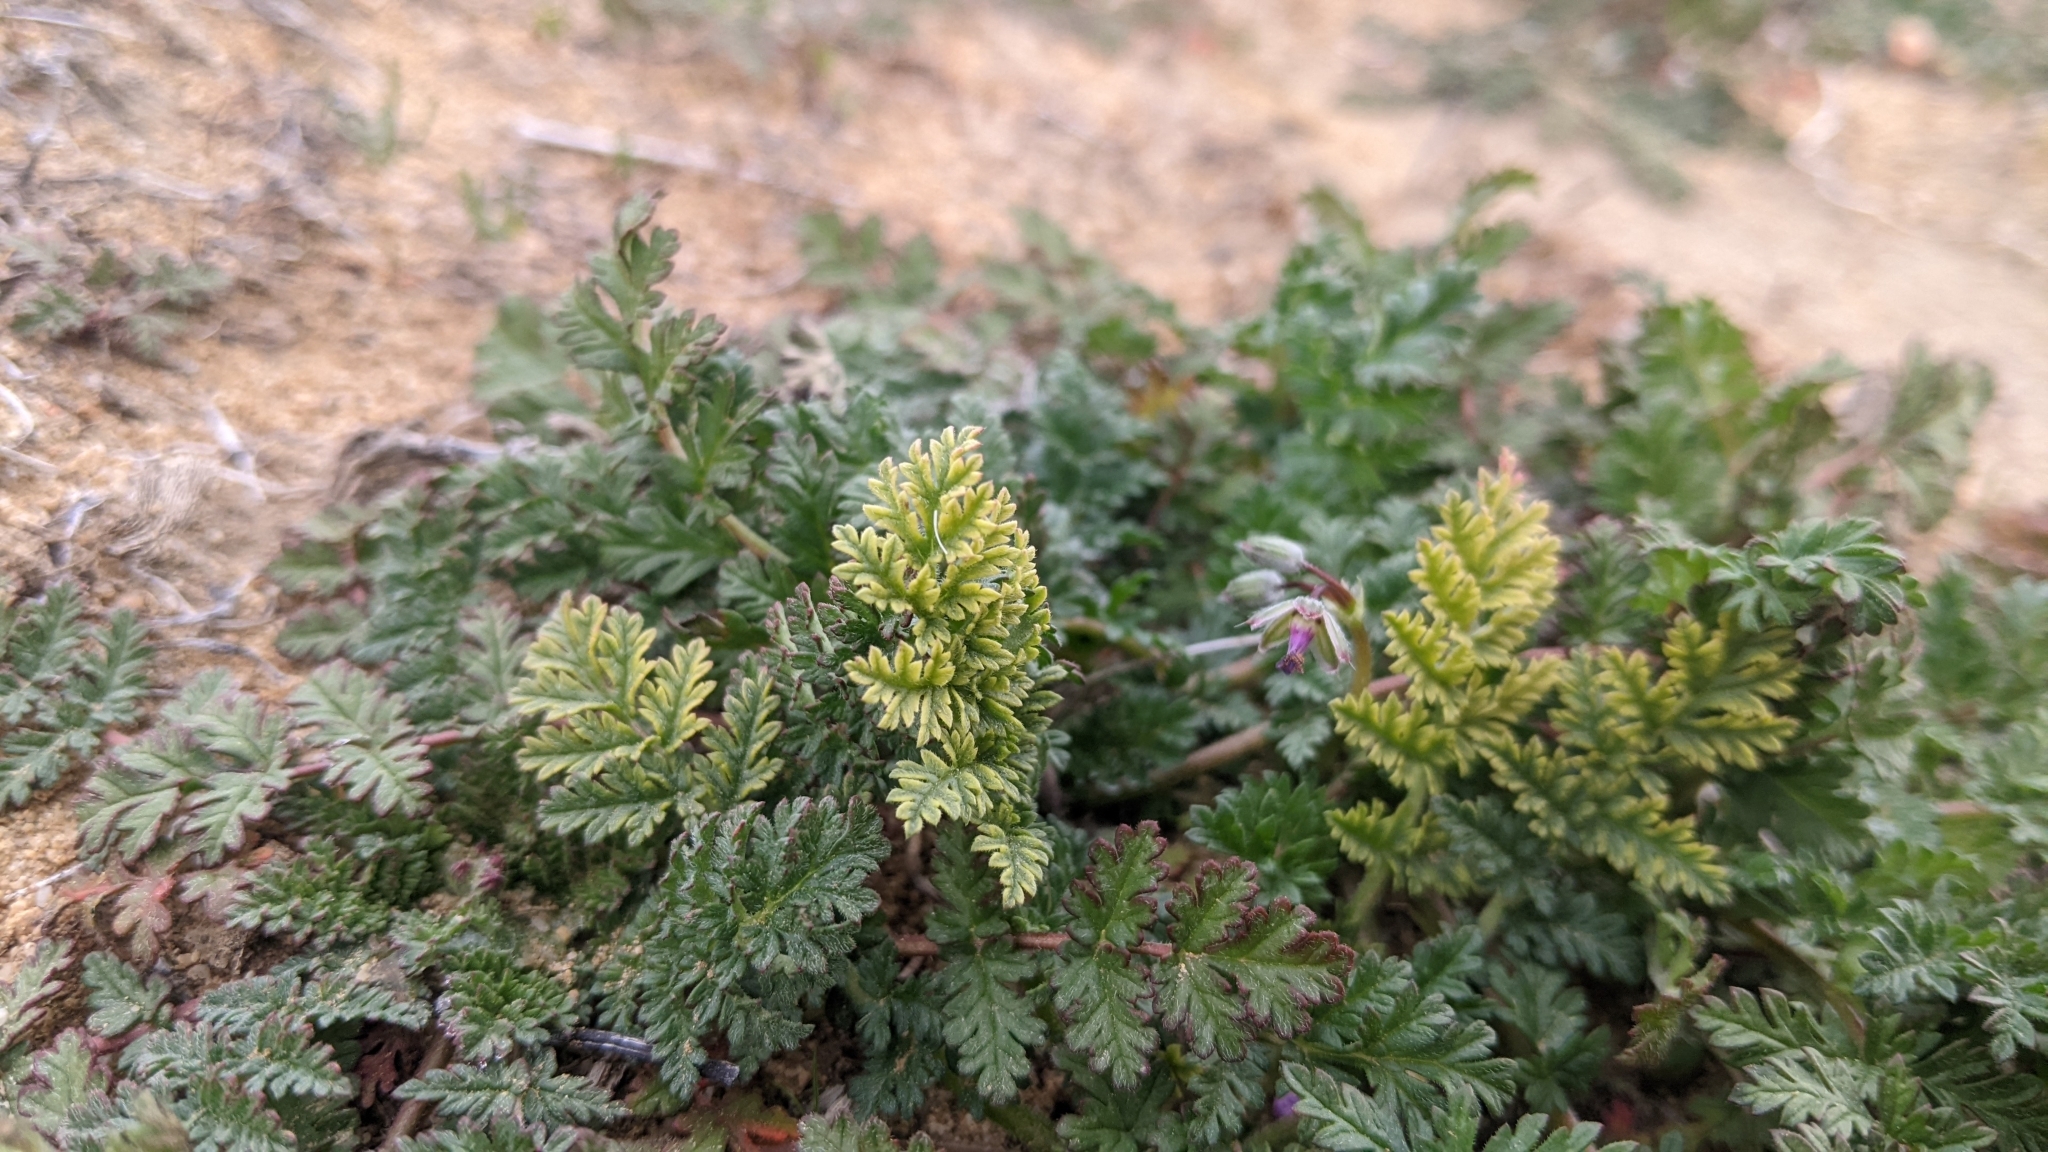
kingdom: Plantae
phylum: Tracheophyta
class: Magnoliopsida
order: Geraniales
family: Geraniaceae
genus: Erodium
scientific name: Erodium cicutarium
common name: Common stork's-bill
